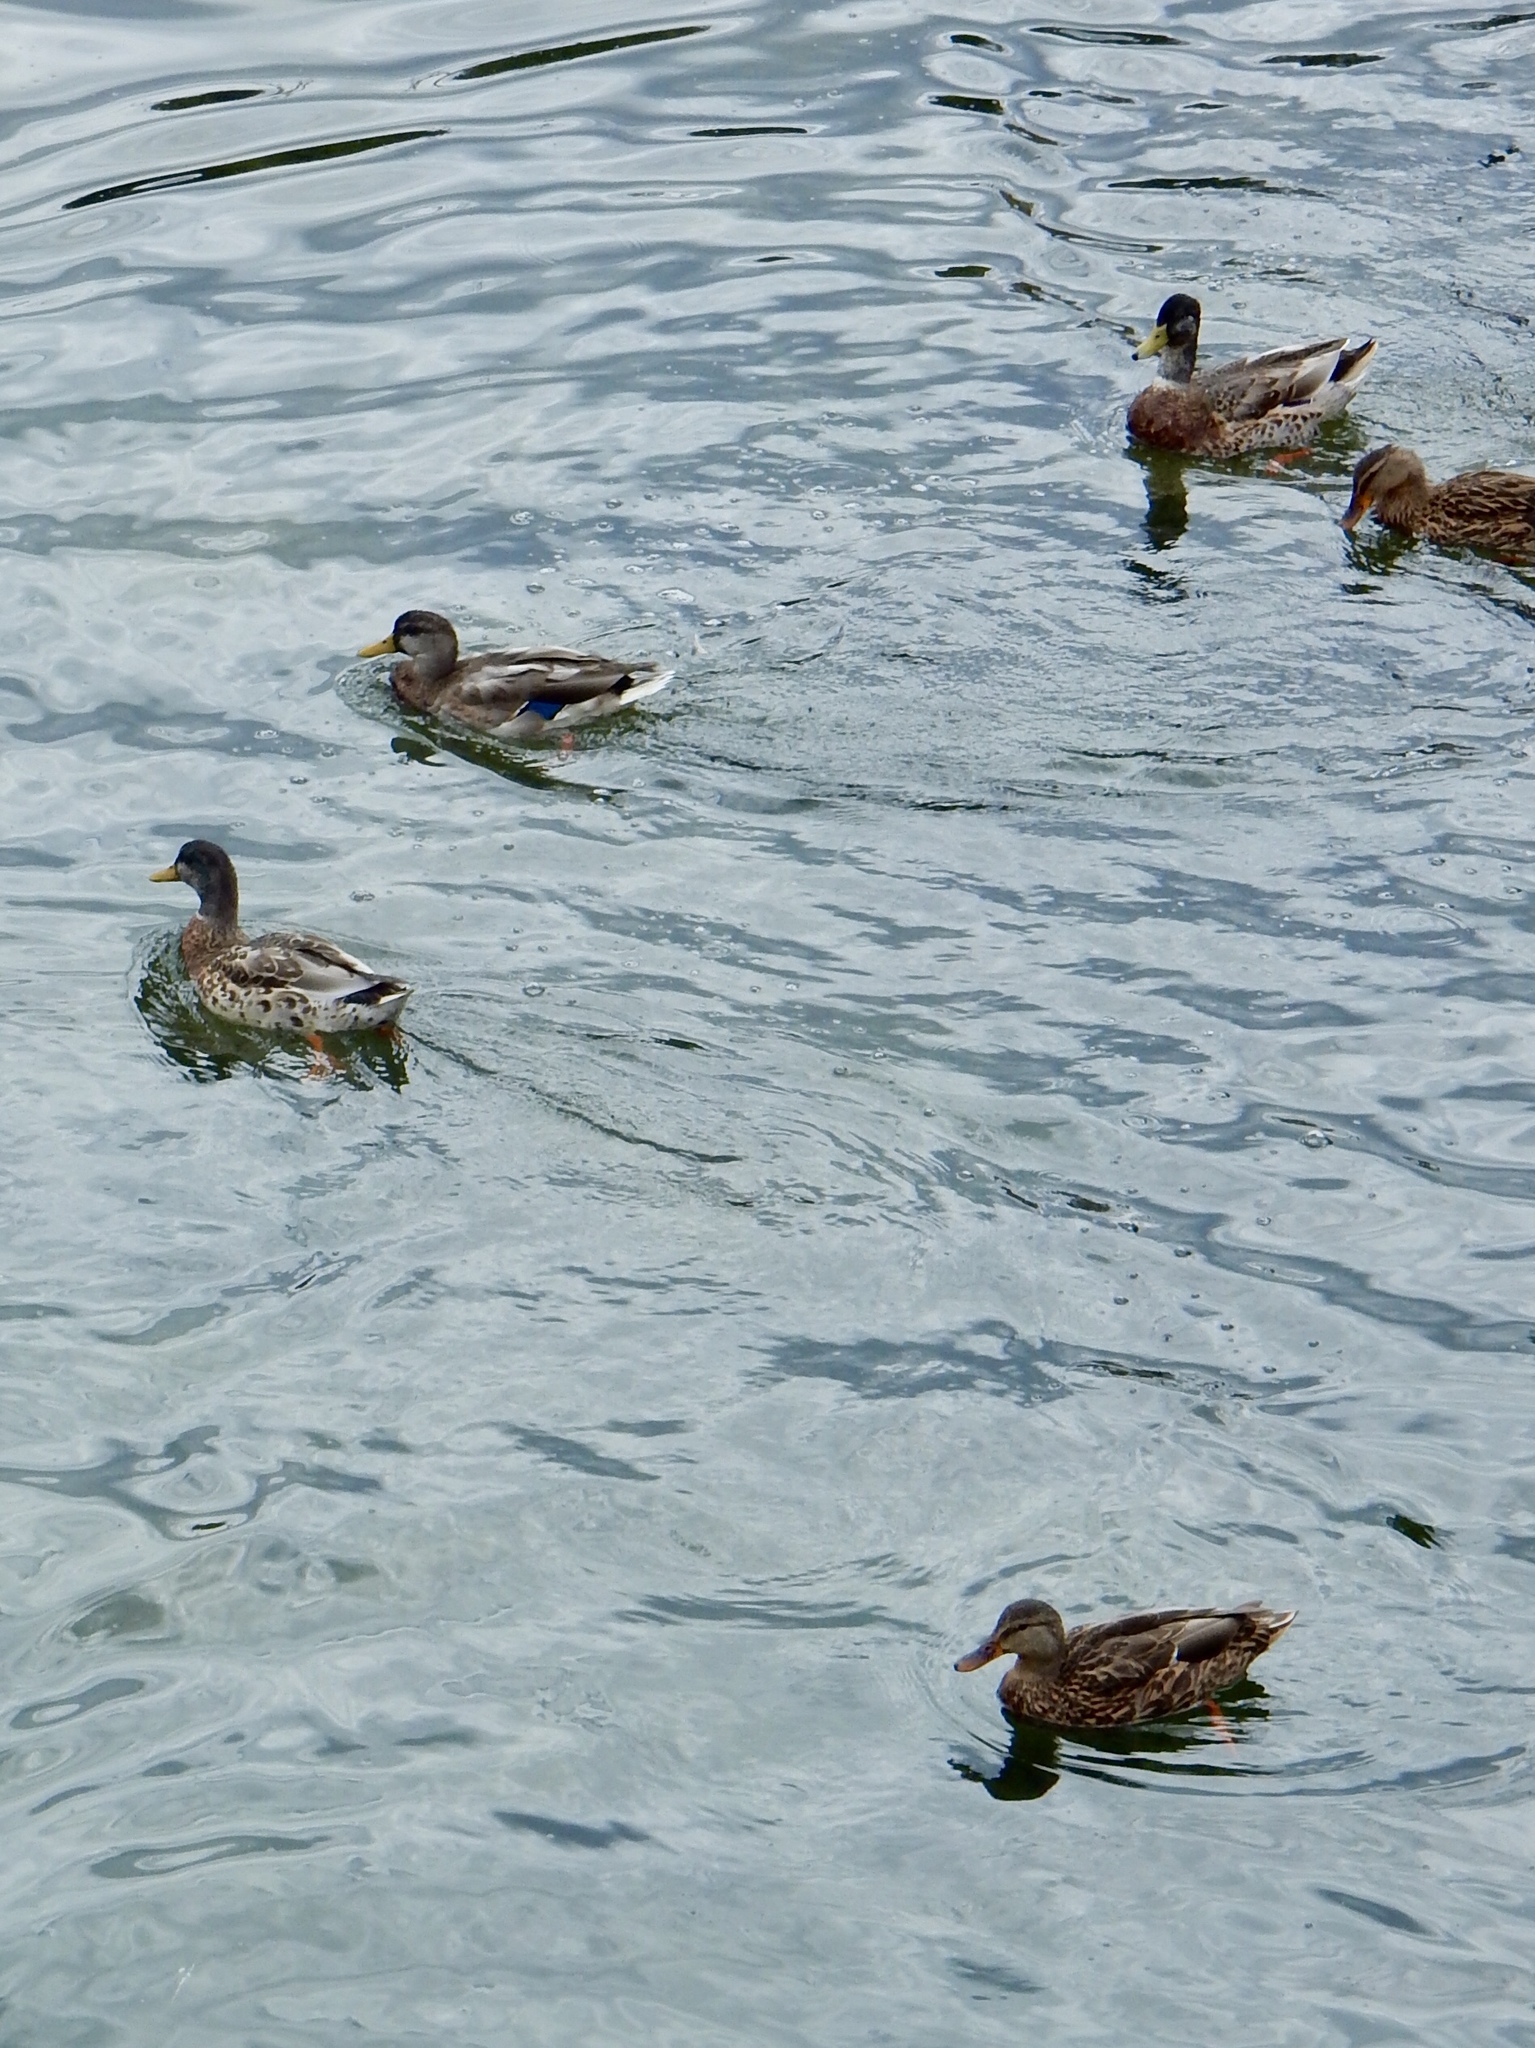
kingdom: Animalia
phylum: Chordata
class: Aves
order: Anseriformes
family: Anatidae
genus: Anas
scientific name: Anas platyrhynchos
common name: Mallard
